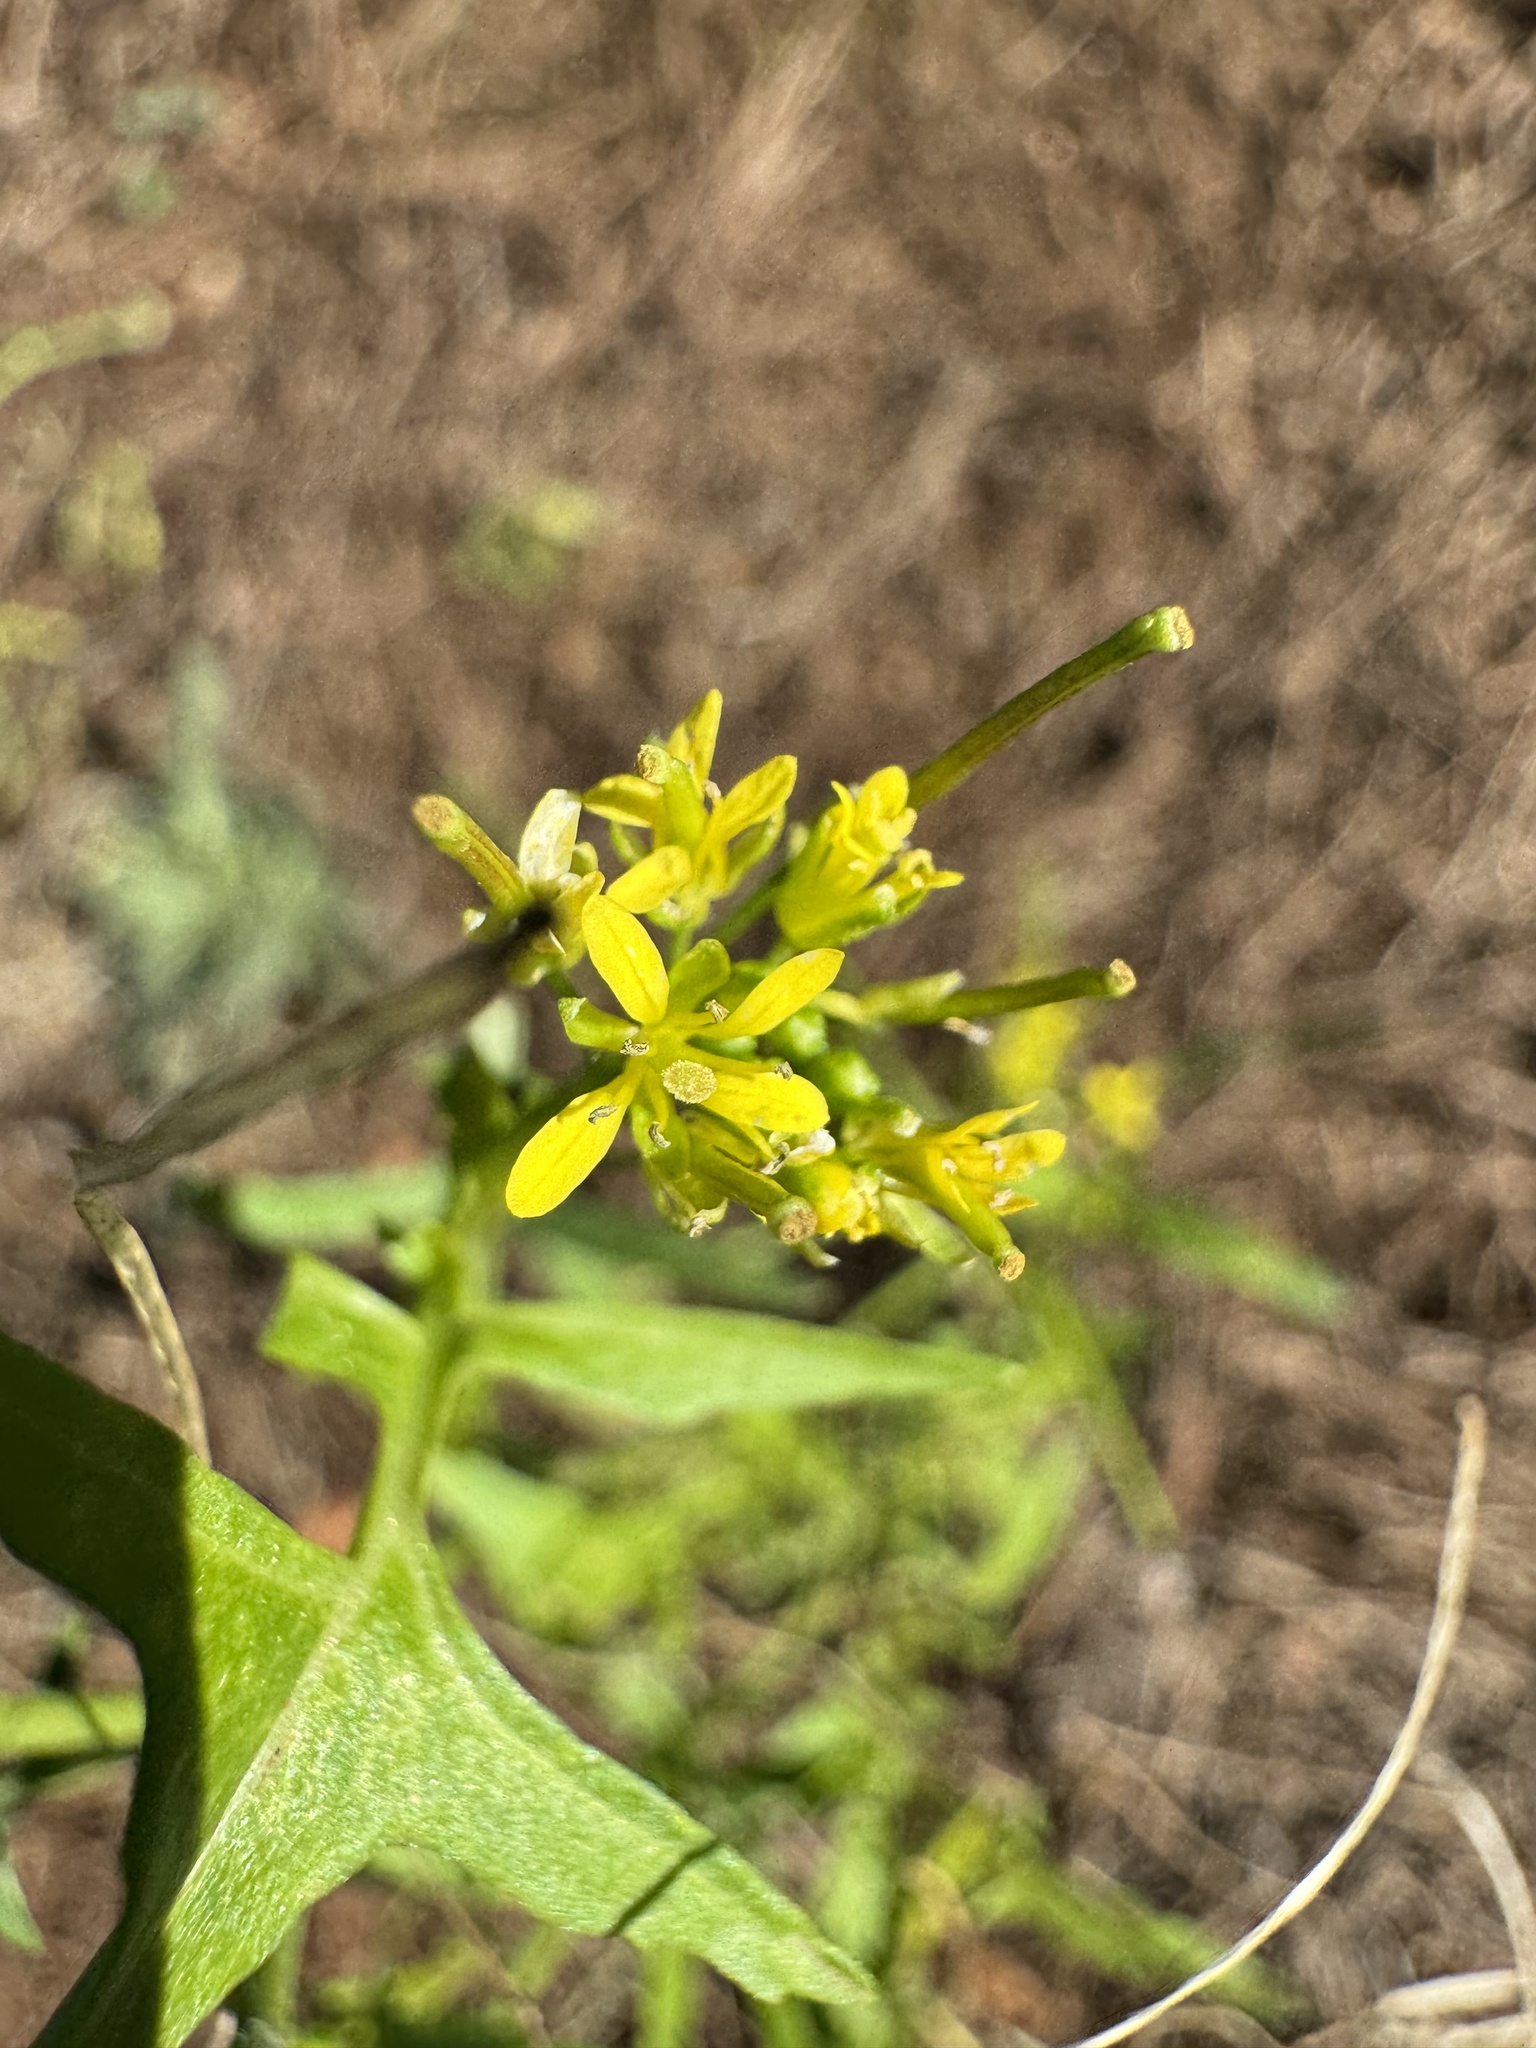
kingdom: Plantae
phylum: Tracheophyta
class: Magnoliopsida
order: Brassicales
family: Brassicaceae
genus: Sisymbrium
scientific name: Sisymbrium irio
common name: London rocket
